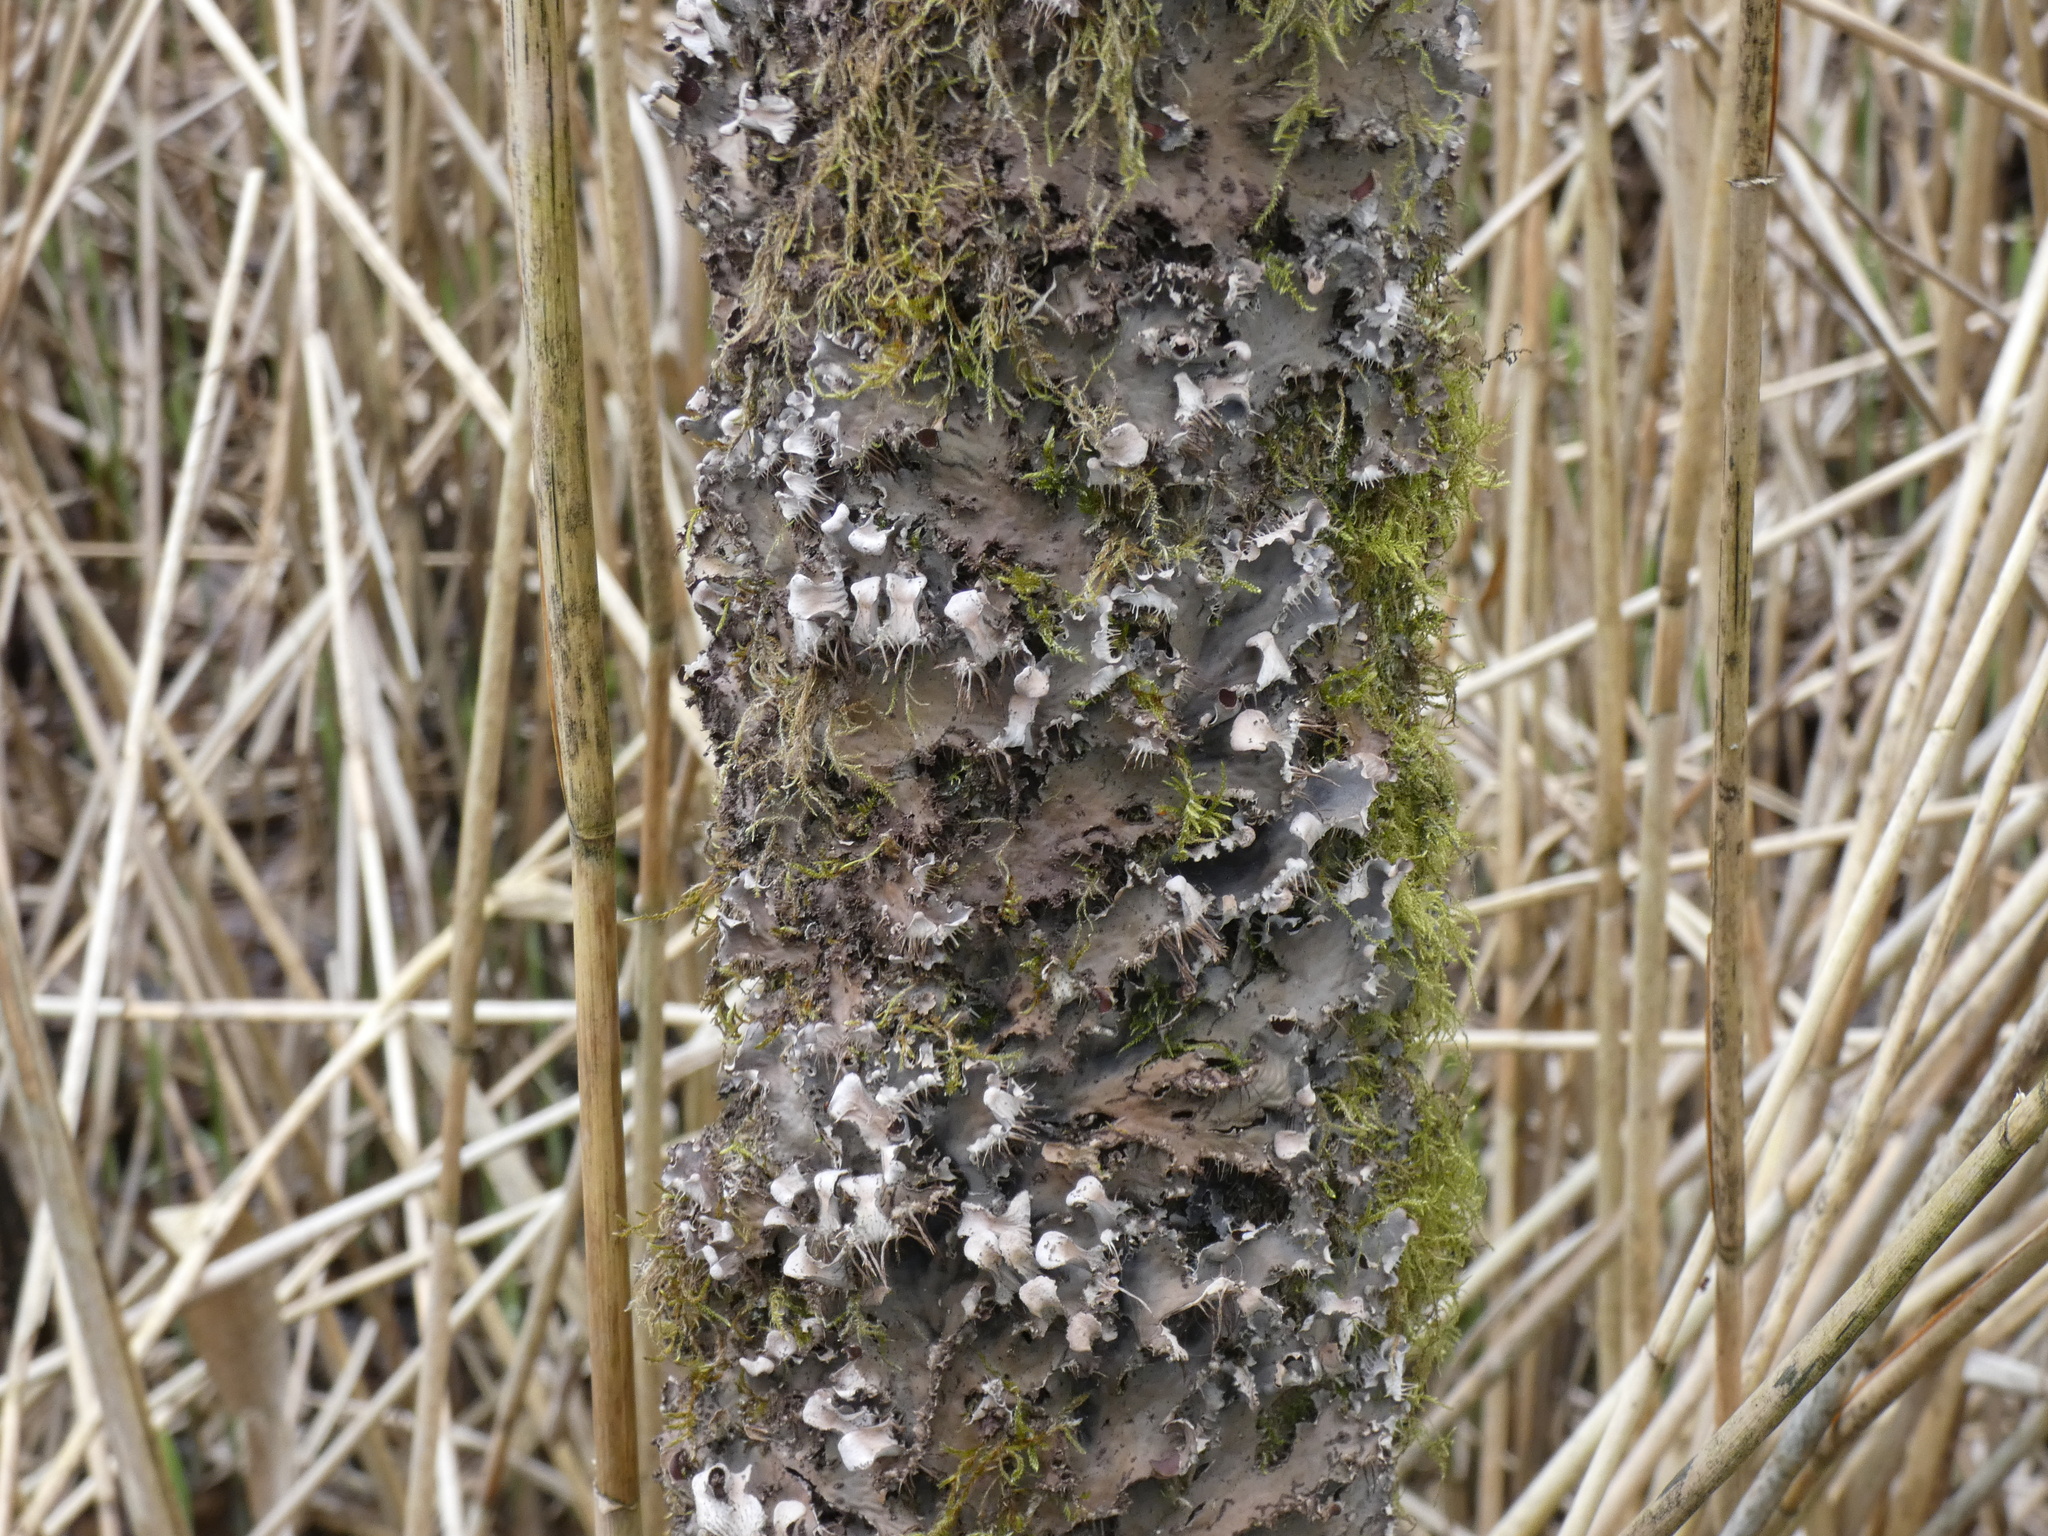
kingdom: Fungi
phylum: Ascomycota
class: Lecanoromycetes
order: Peltigerales
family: Peltigeraceae
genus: Peltigera
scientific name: Peltigera praetextata
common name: Scaly dog-lichen
